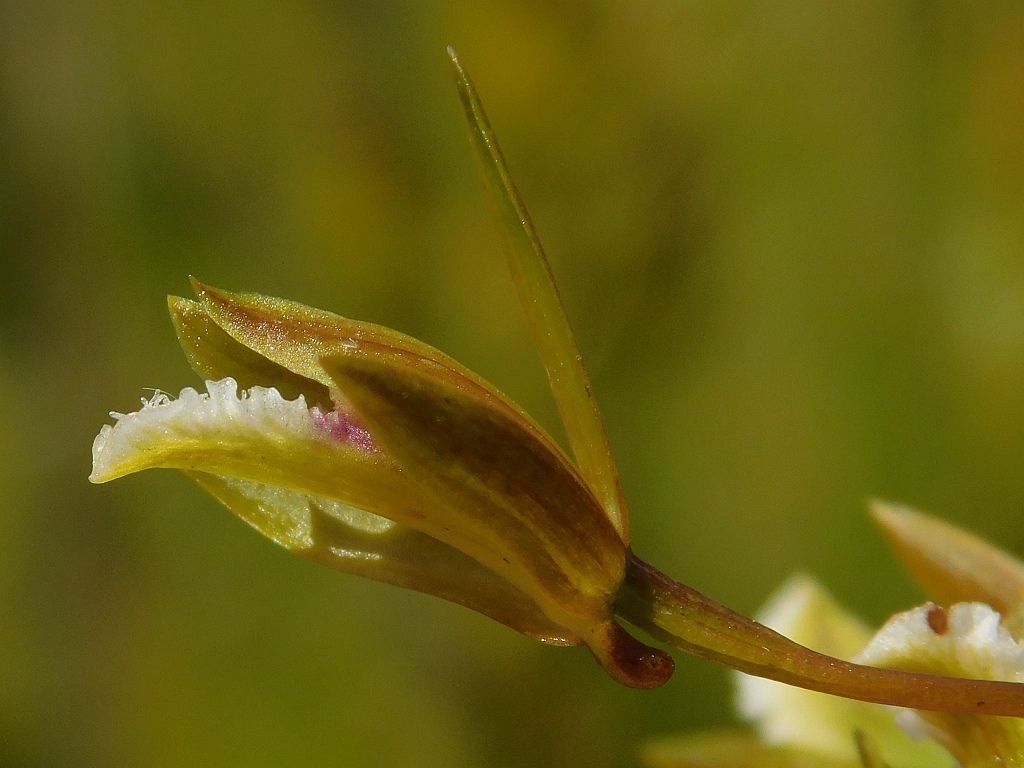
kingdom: Plantae
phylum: Tracheophyta
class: Liliopsida
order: Asparagales
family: Orchidaceae
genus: Eulophia
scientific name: Eulophia tristis
